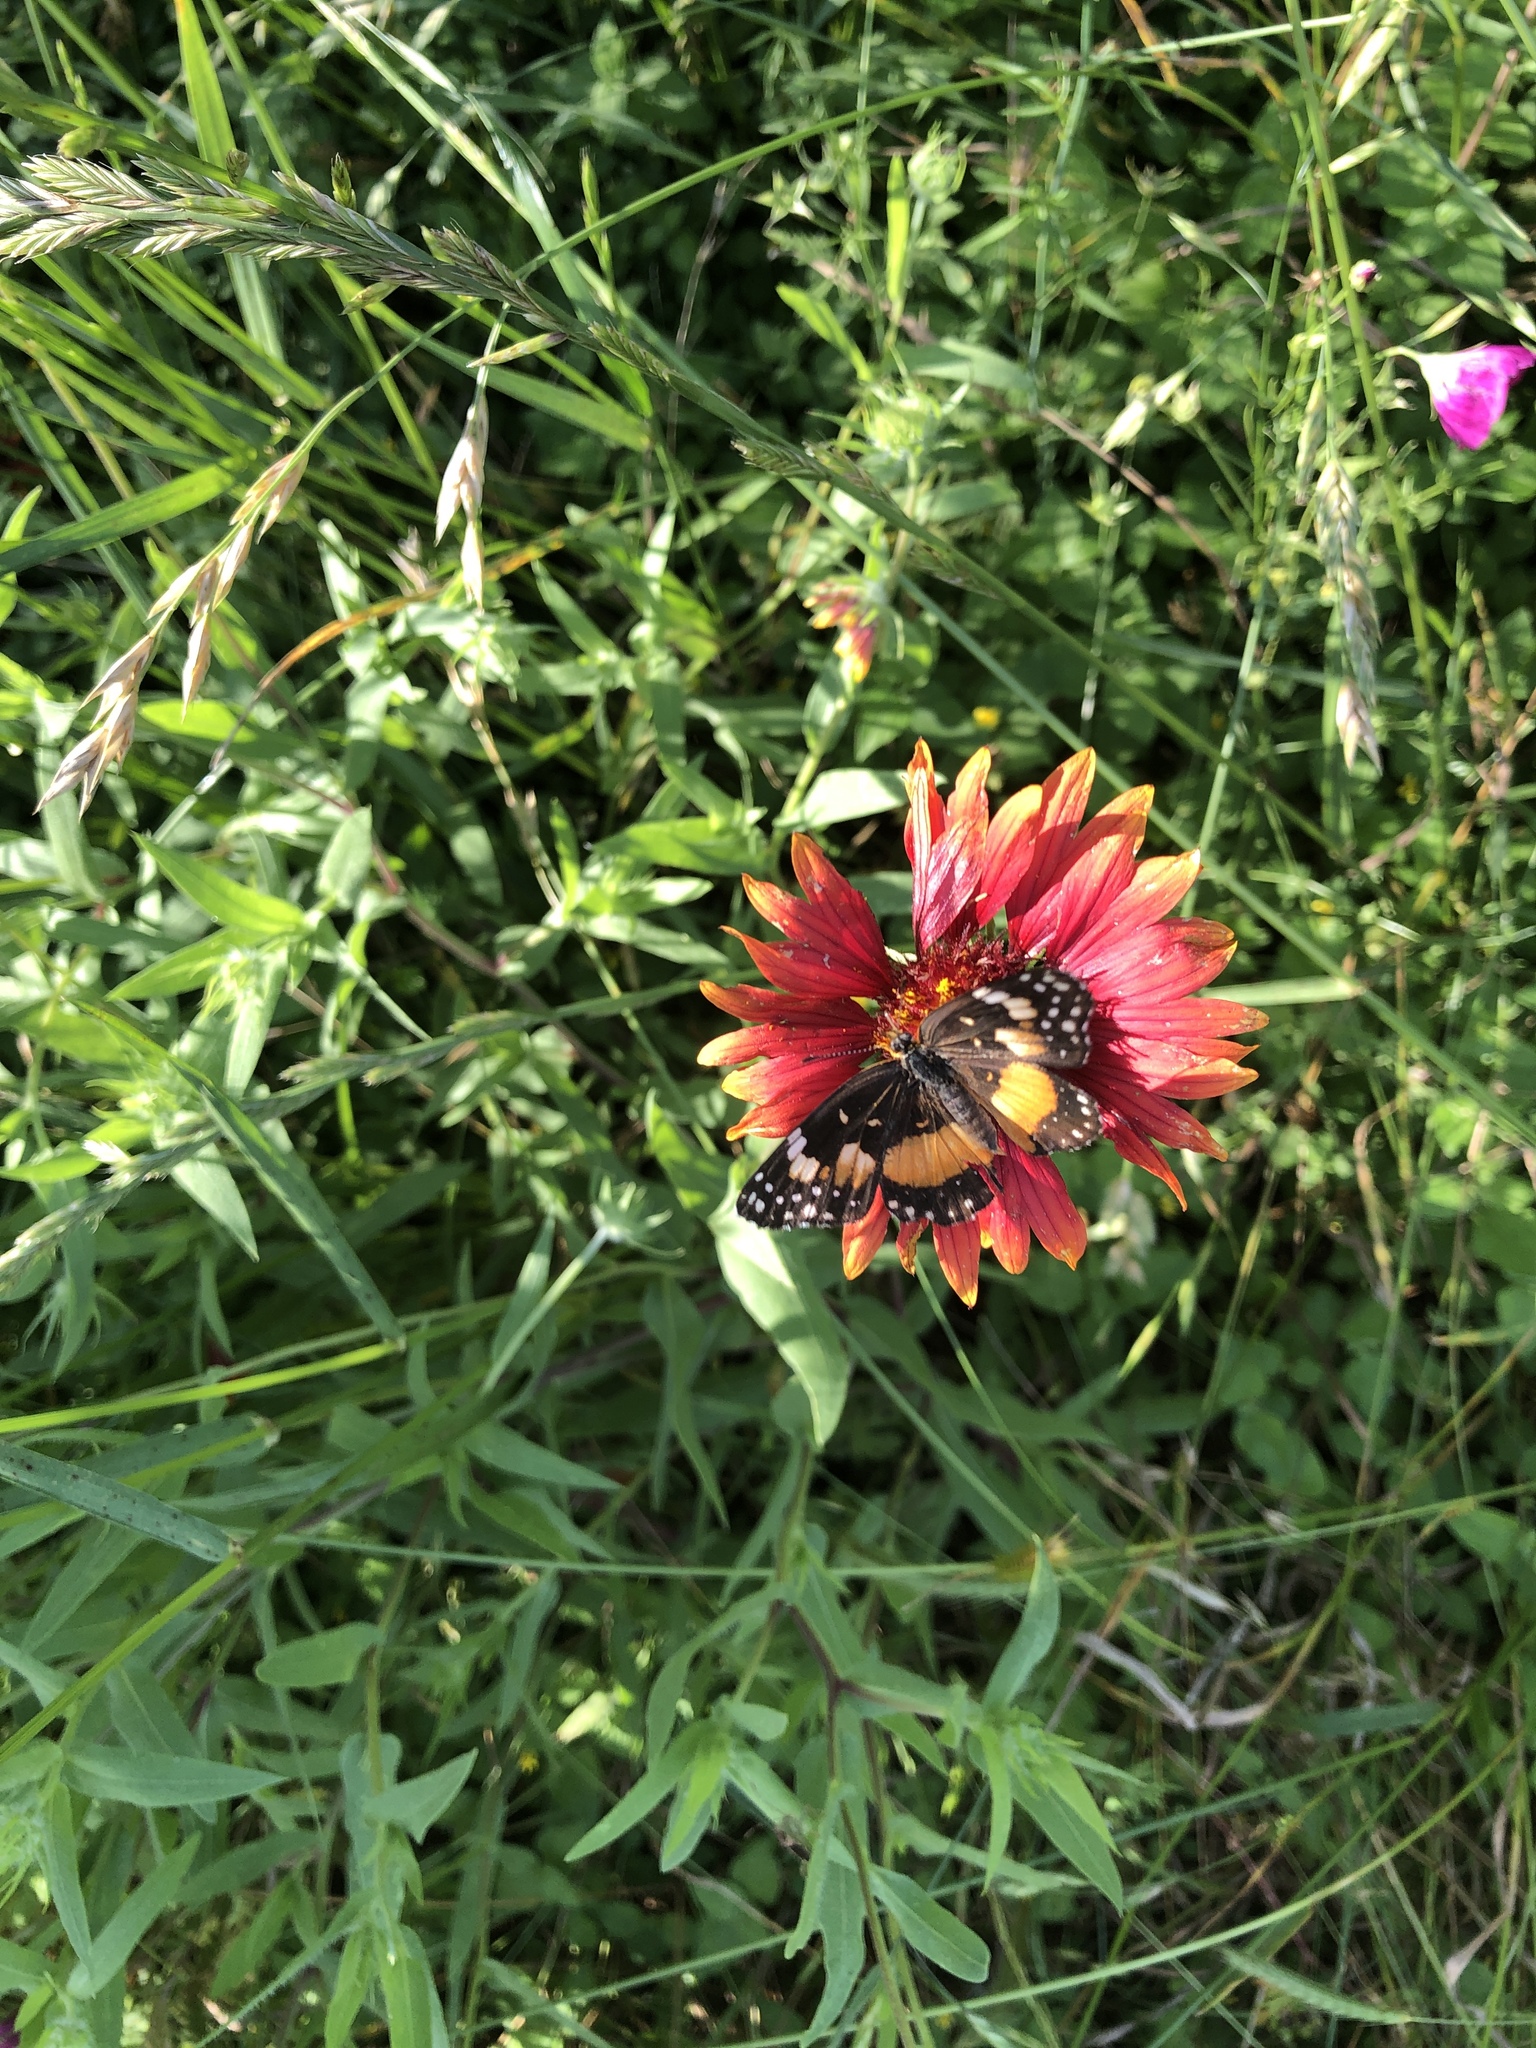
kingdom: Animalia
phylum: Arthropoda
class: Insecta
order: Lepidoptera
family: Nymphalidae
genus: Chlosyne
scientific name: Chlosyne lacinia
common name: Bordered patch
